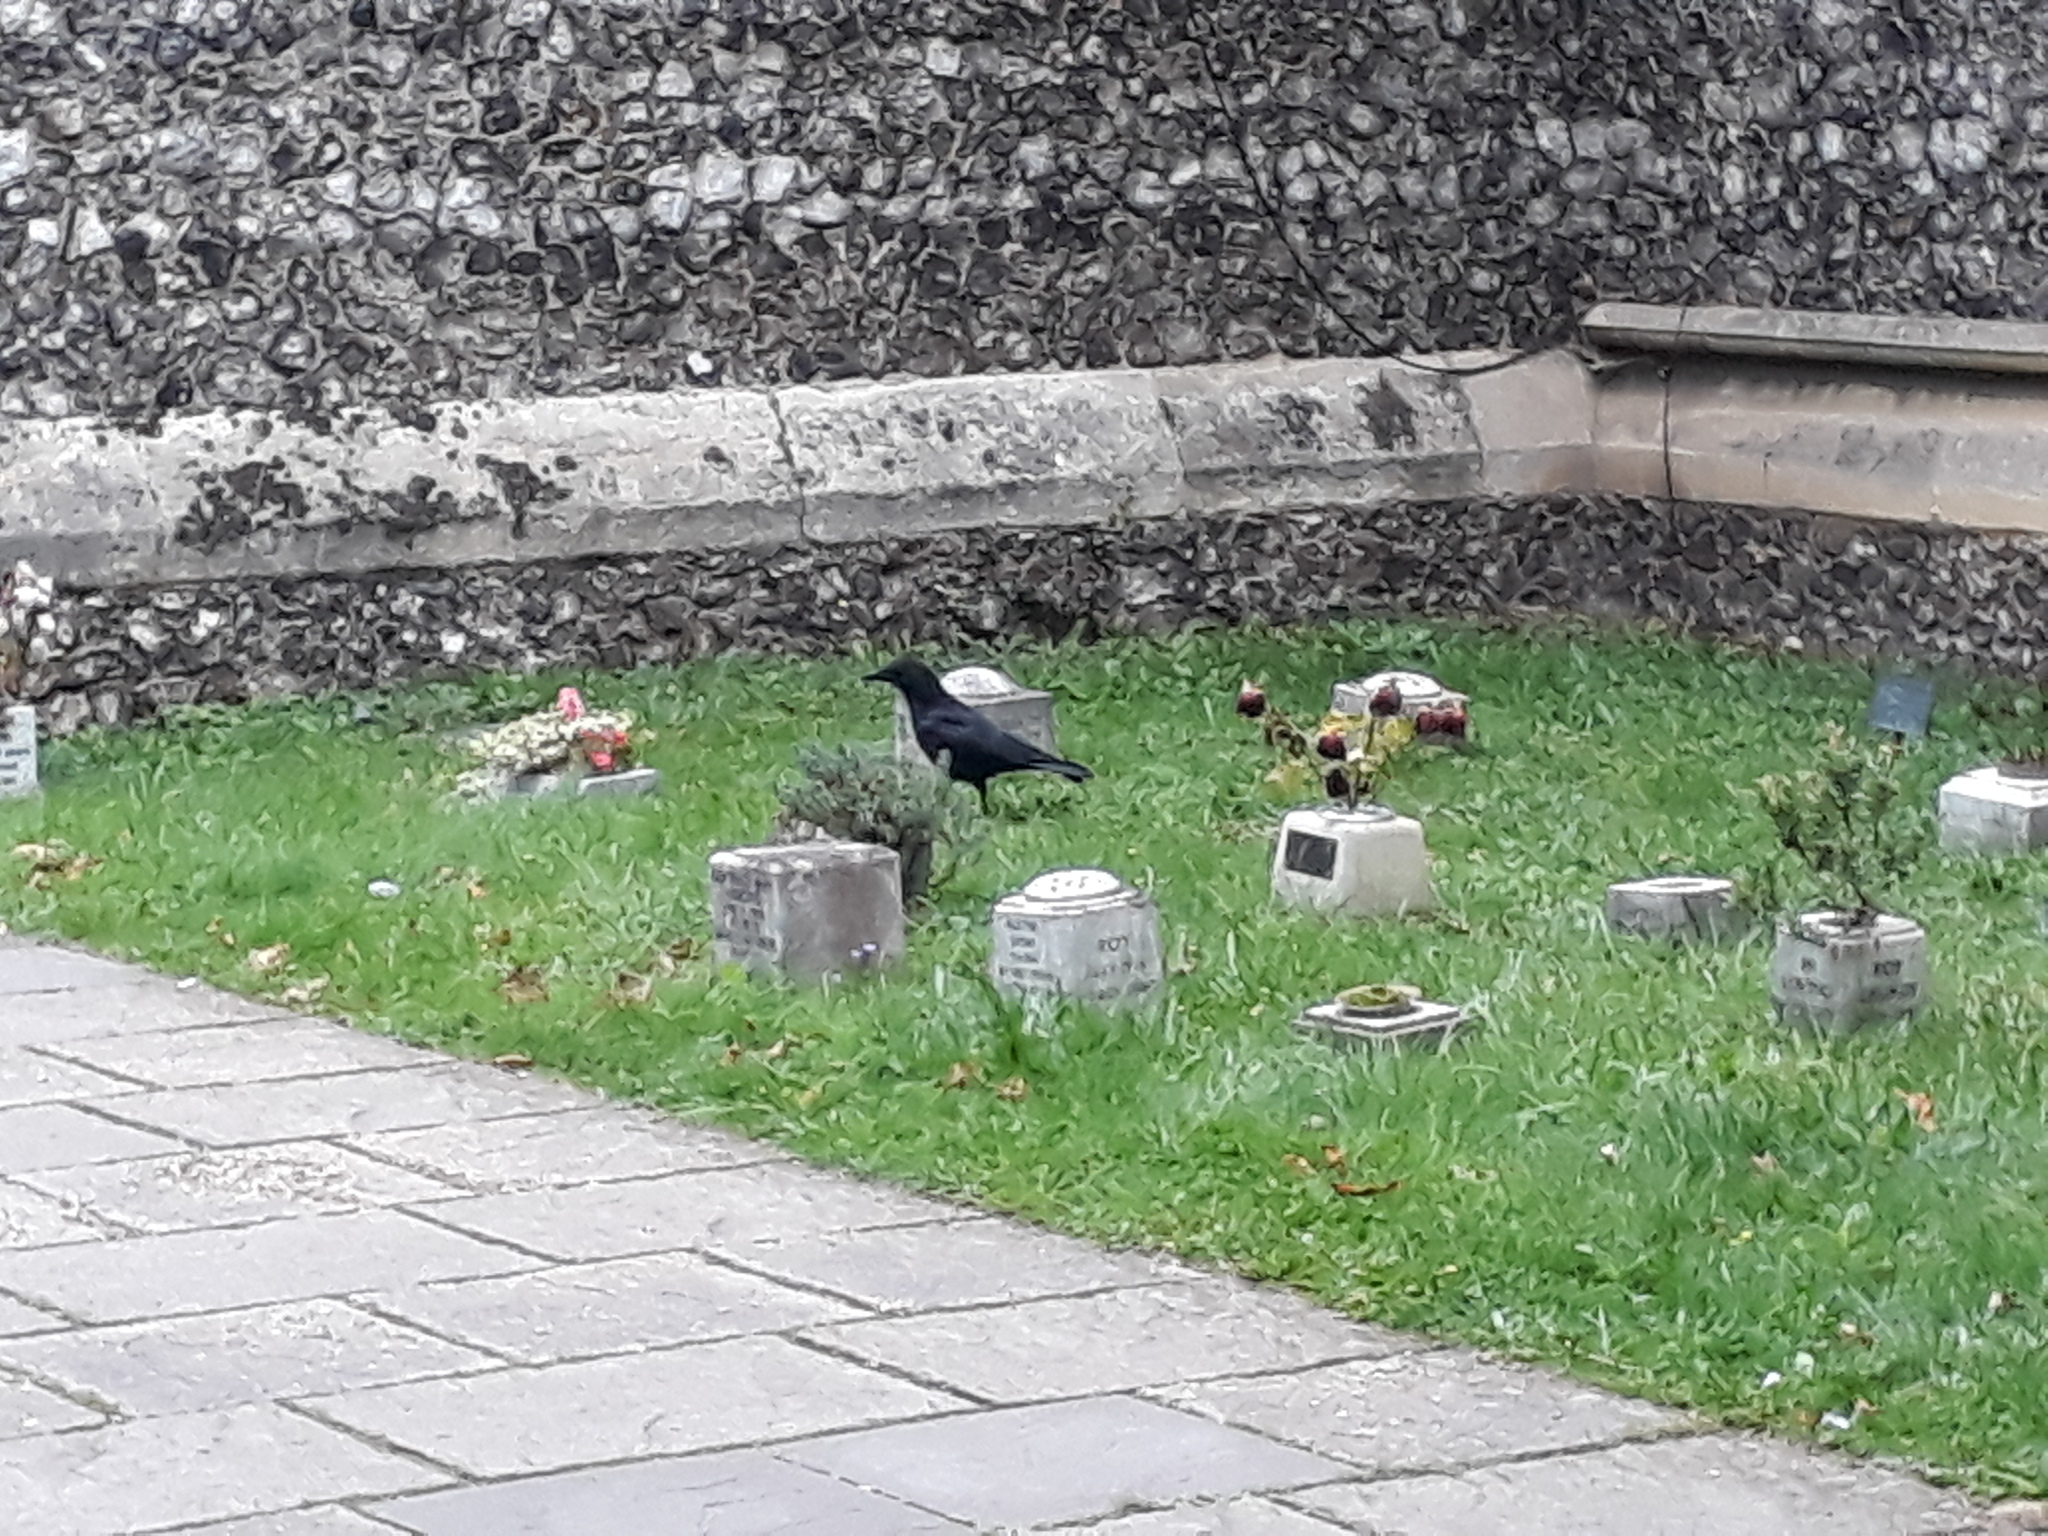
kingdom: Animalia
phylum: Chordata
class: Aves
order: Passeriformes
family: Corvidae
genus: Corvus
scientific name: Corvus corone
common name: Carrion crow
